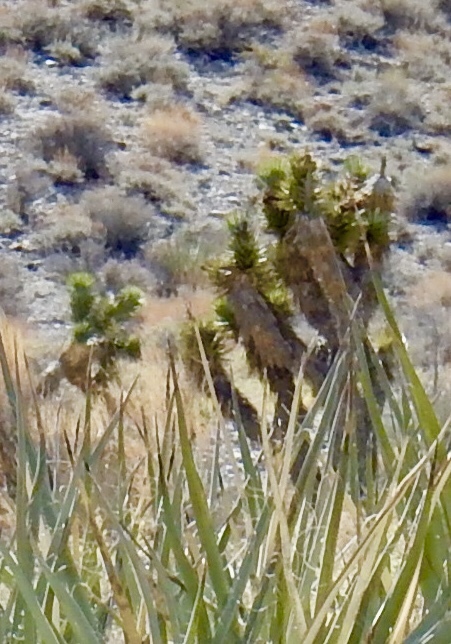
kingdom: Plantae
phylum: Tracheophyta
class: Liliopsida
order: Asparagales
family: Asparagaceae
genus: Yucca
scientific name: Yucca brevifolia
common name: Joshua tree
